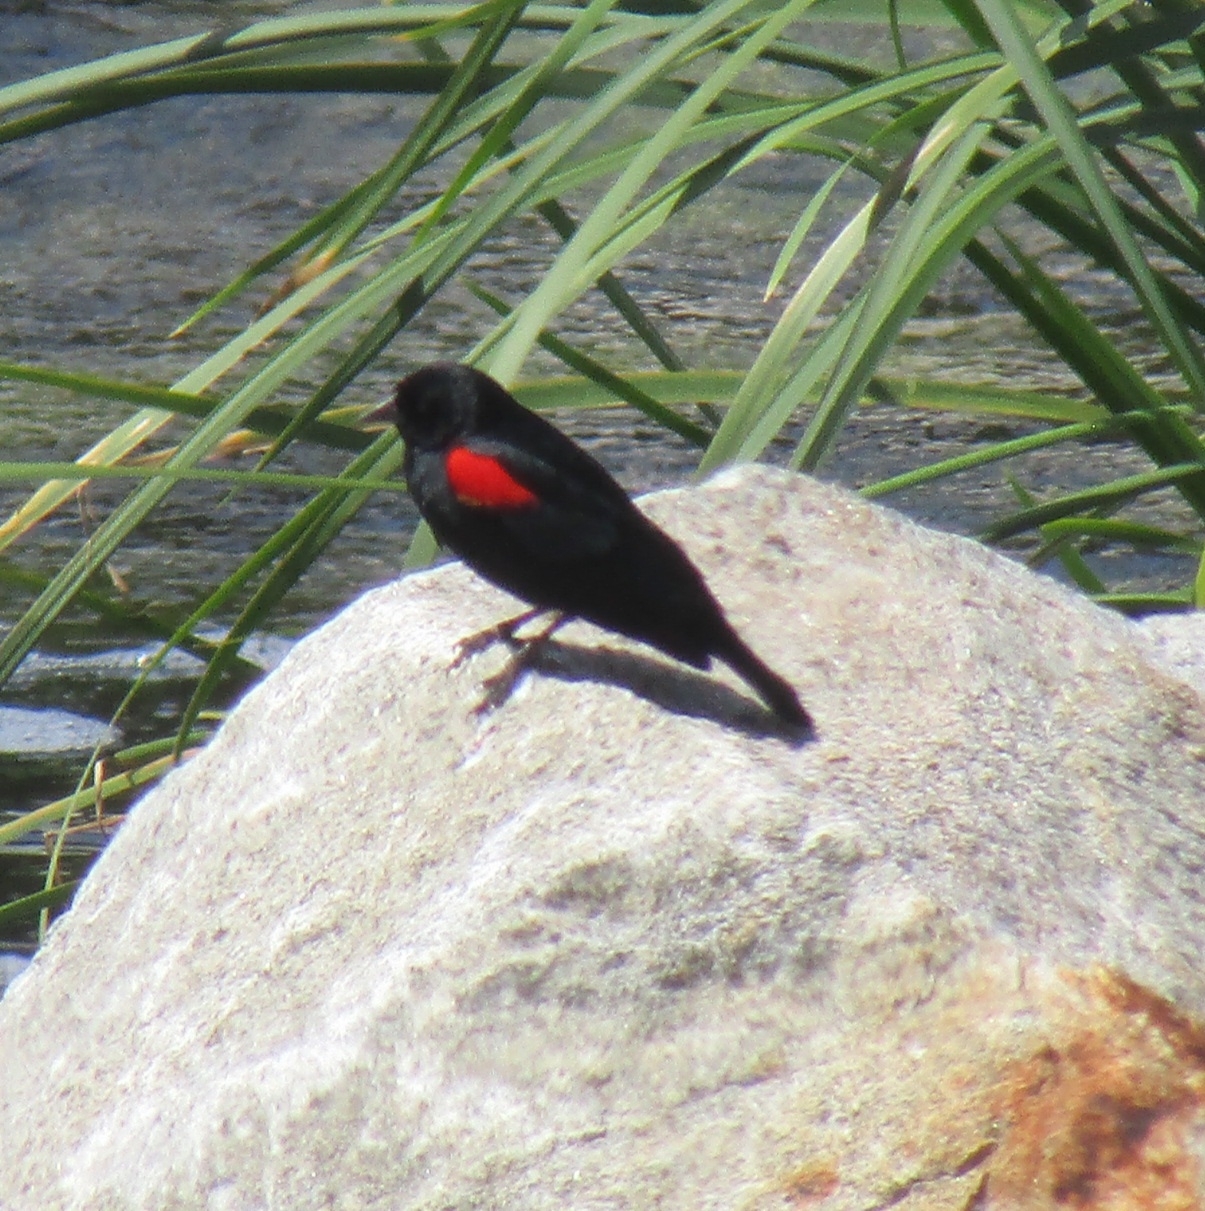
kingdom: Animalia
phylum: Chordata
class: Aves
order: Passeriformes
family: Icteridae
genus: Agelaius
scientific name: Agelaius phoeniceus
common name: Red-winged blackbird
